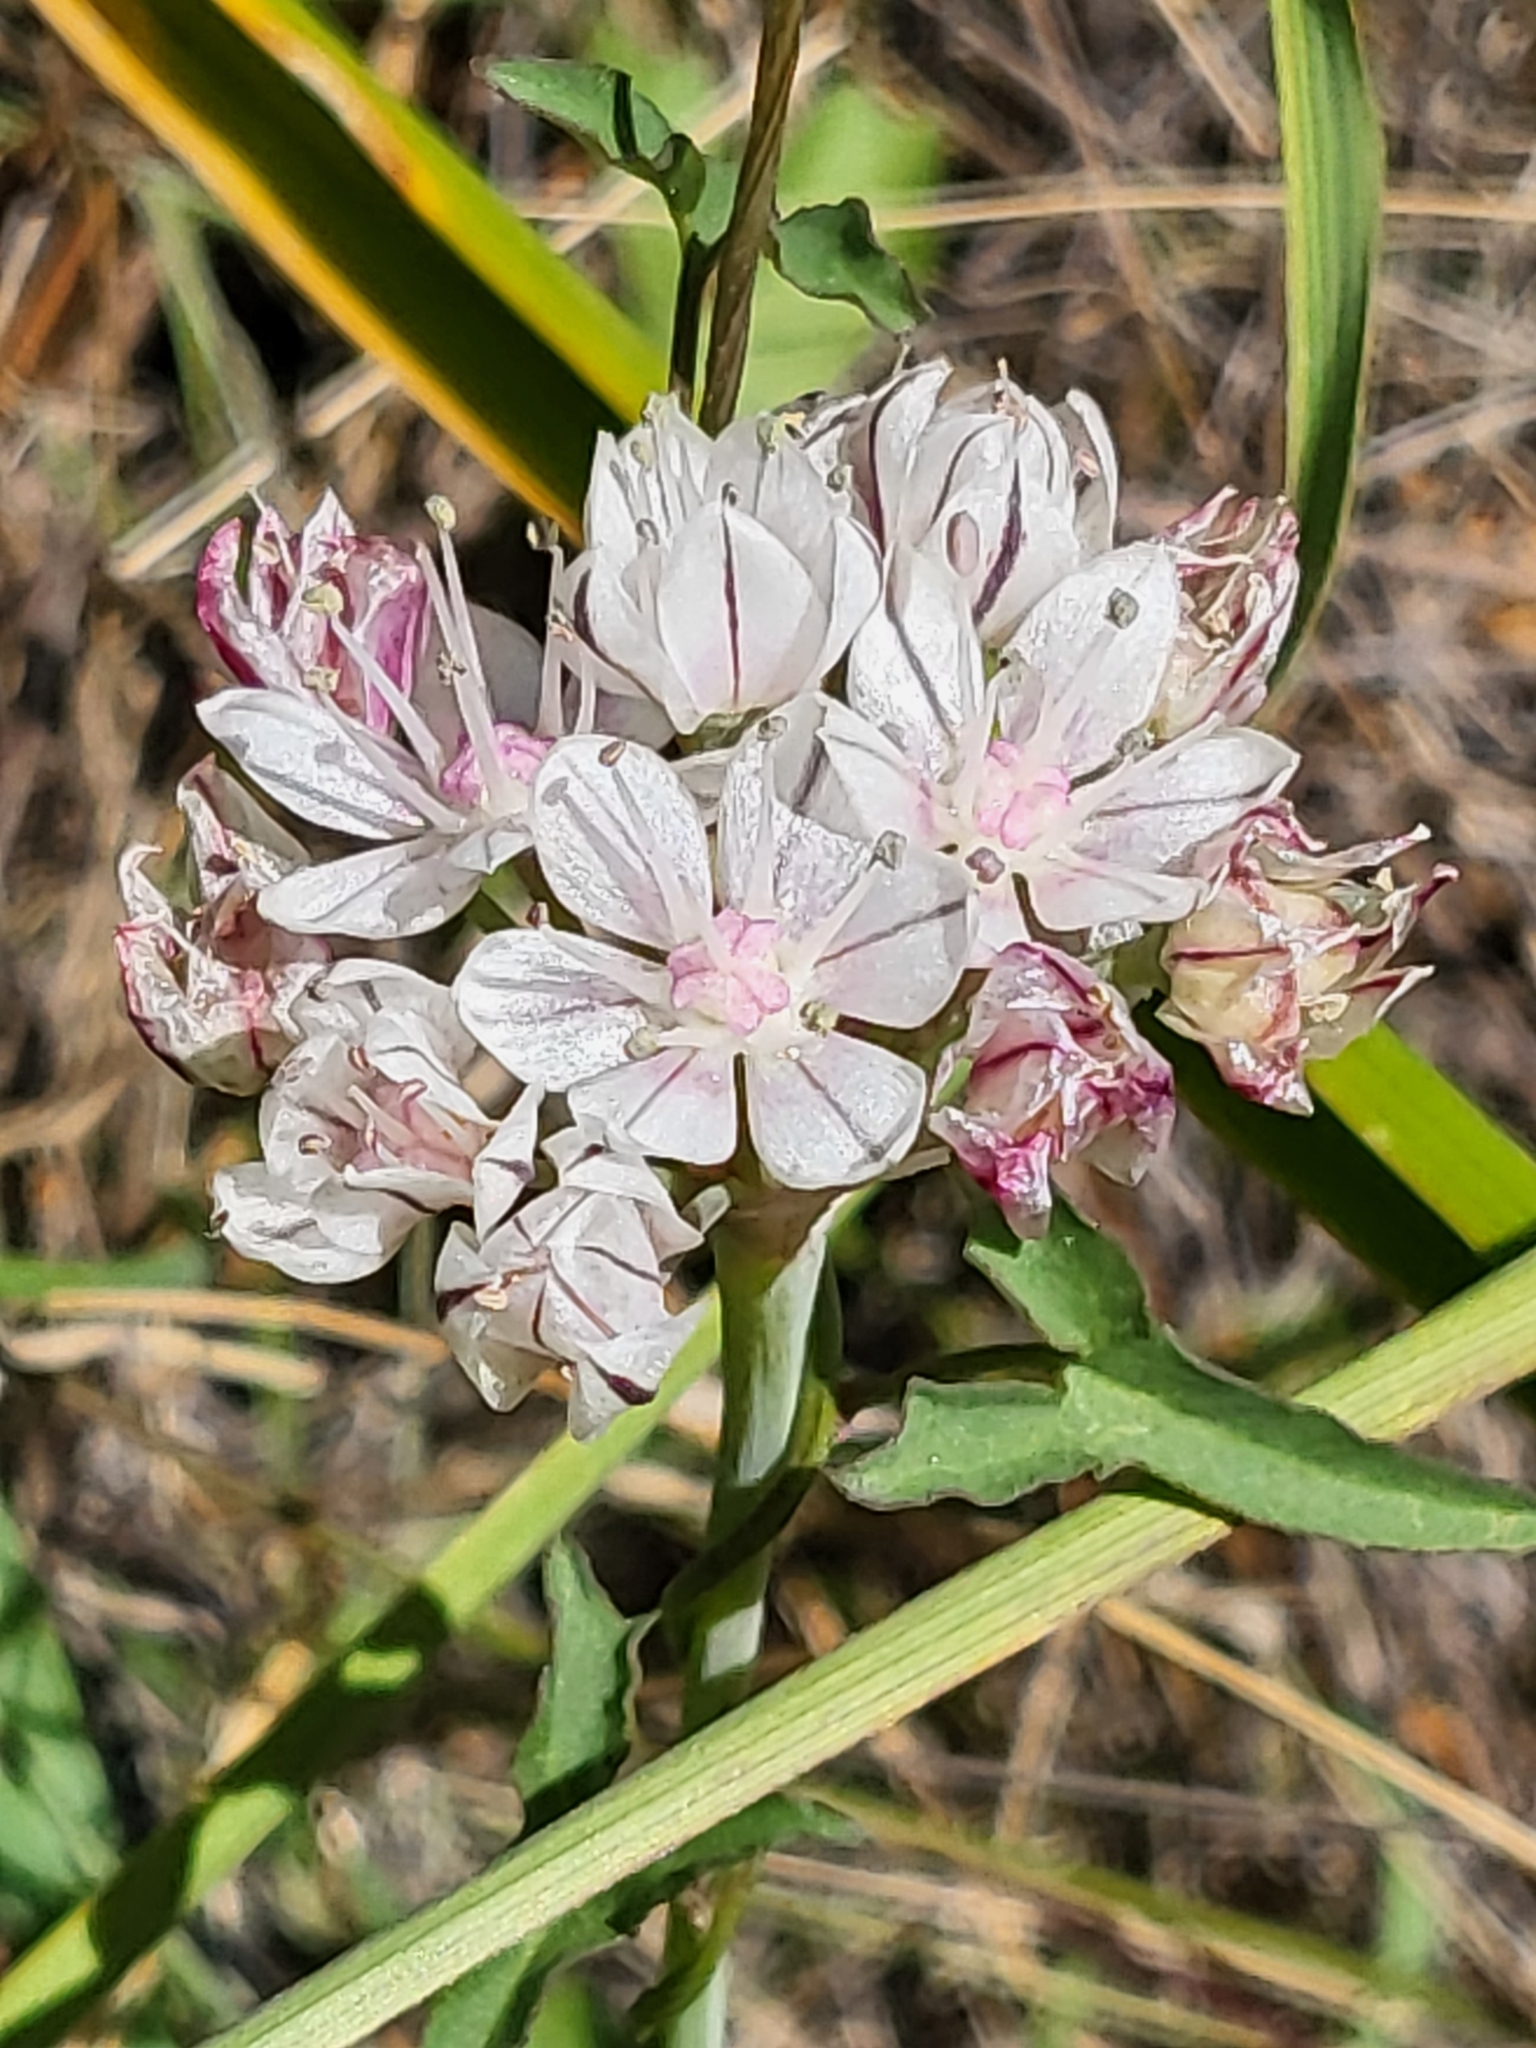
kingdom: Plantae
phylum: Tracheophyta
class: Liliopsida
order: Asparagales
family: Amaryllidaceae
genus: Allium
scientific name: Allium haematochiton
